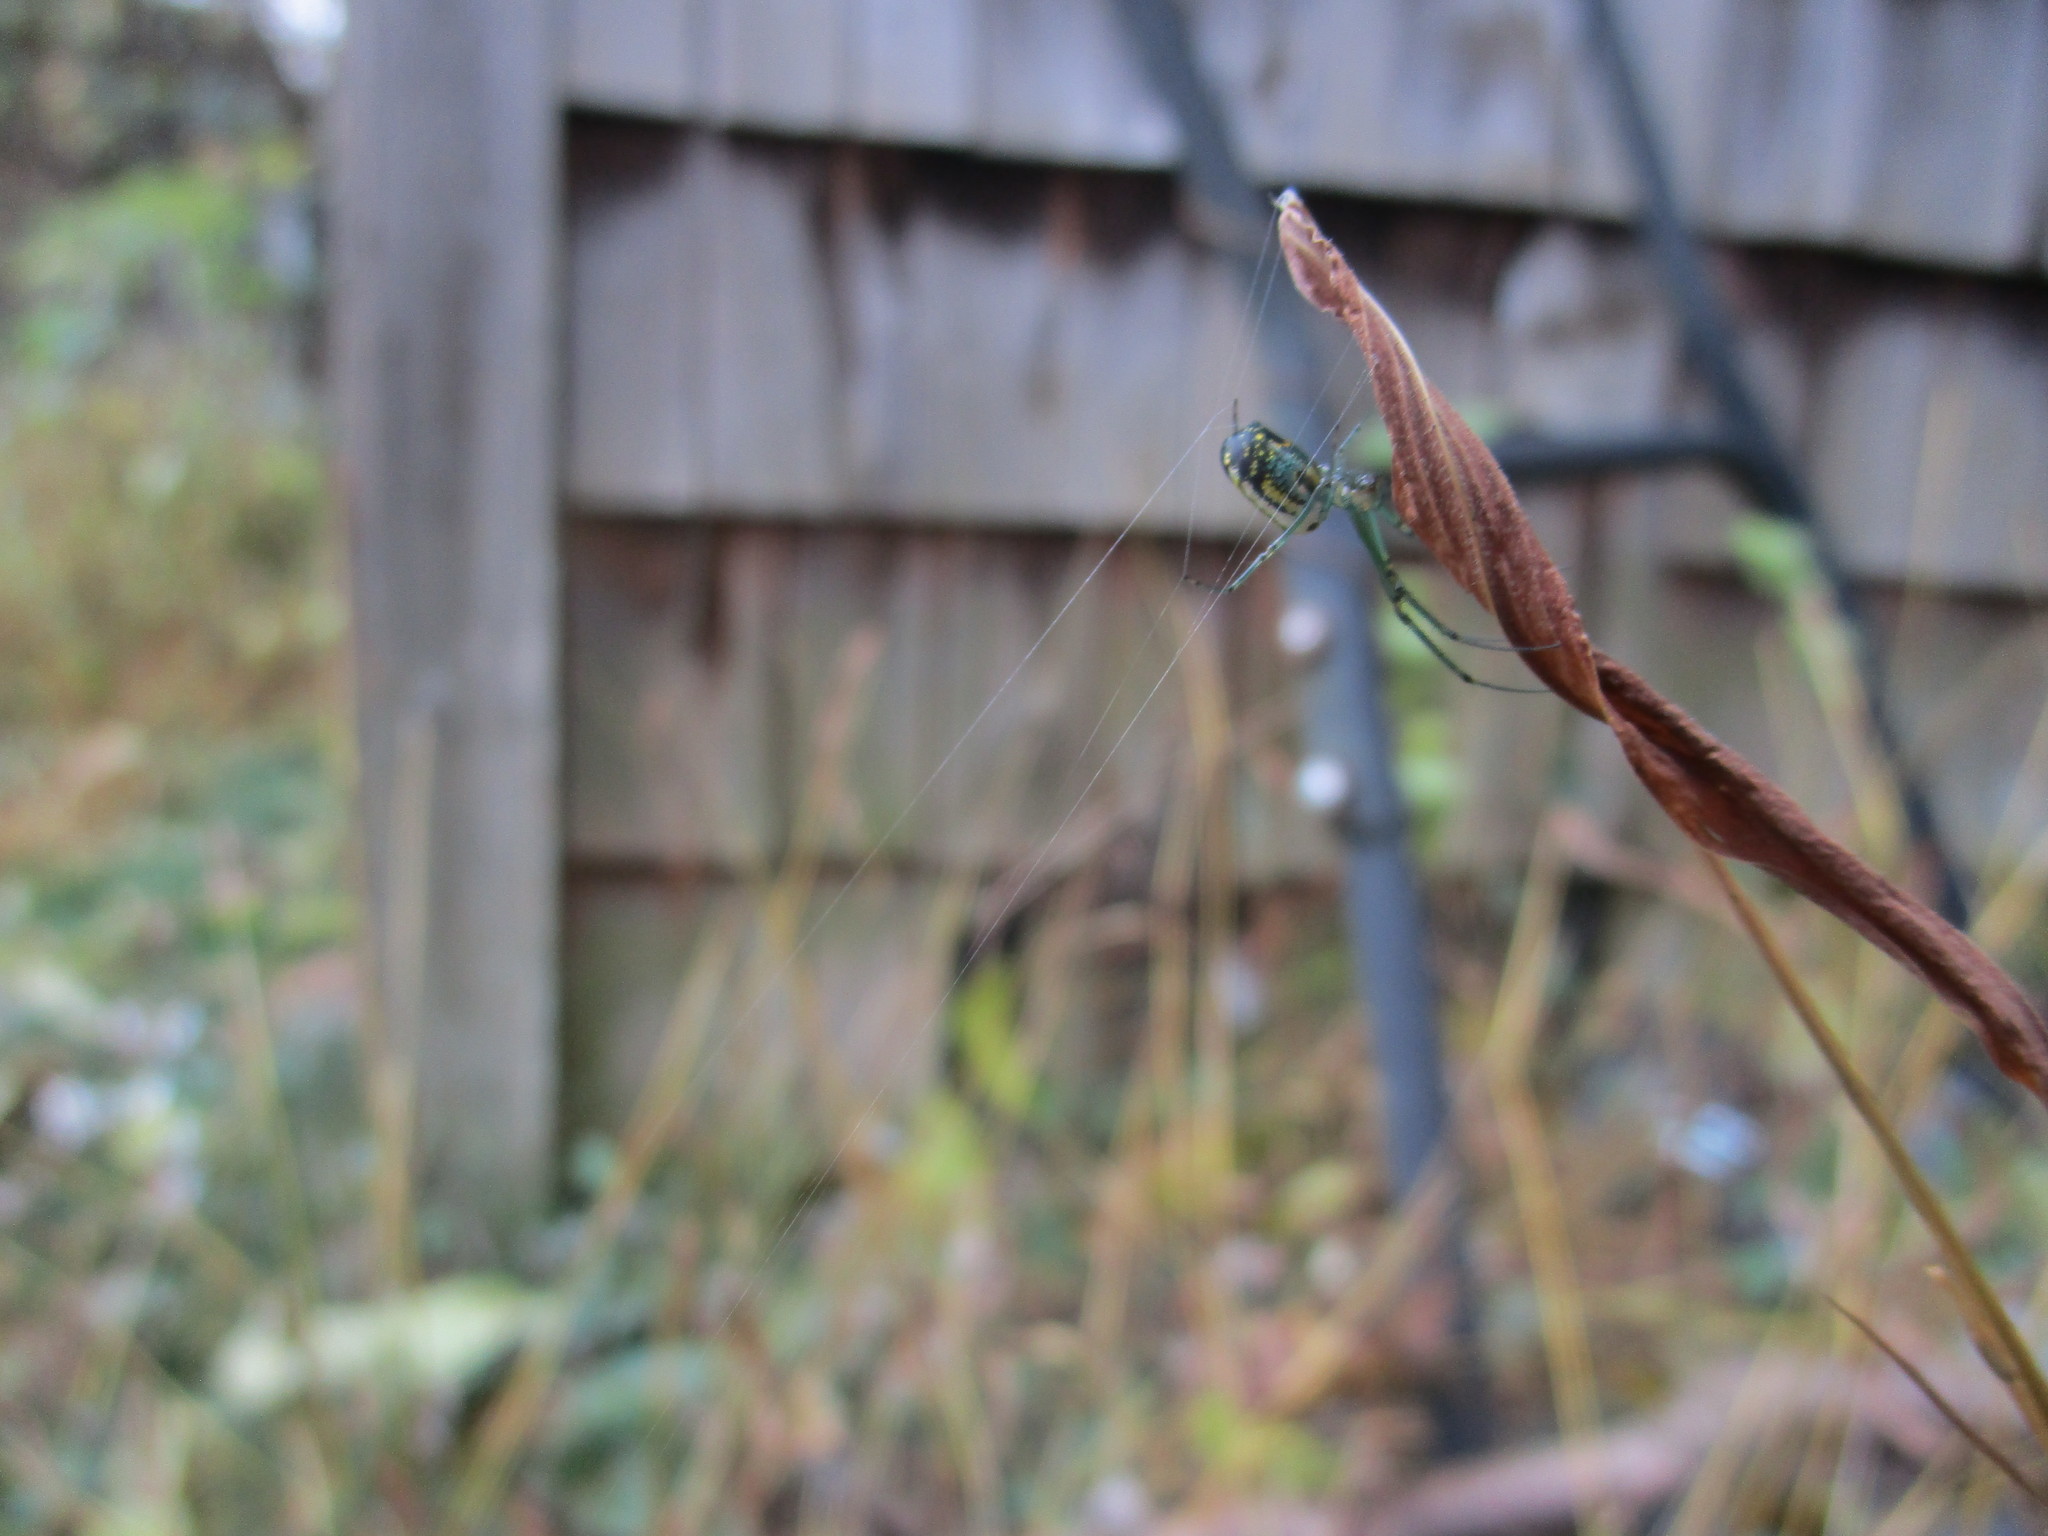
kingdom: Animalia
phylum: Arthropoda
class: Arachnida
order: Araneae
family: Tetragnathidae
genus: Leucauge
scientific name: Leucauge venusta
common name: Longjawed orb weavers
